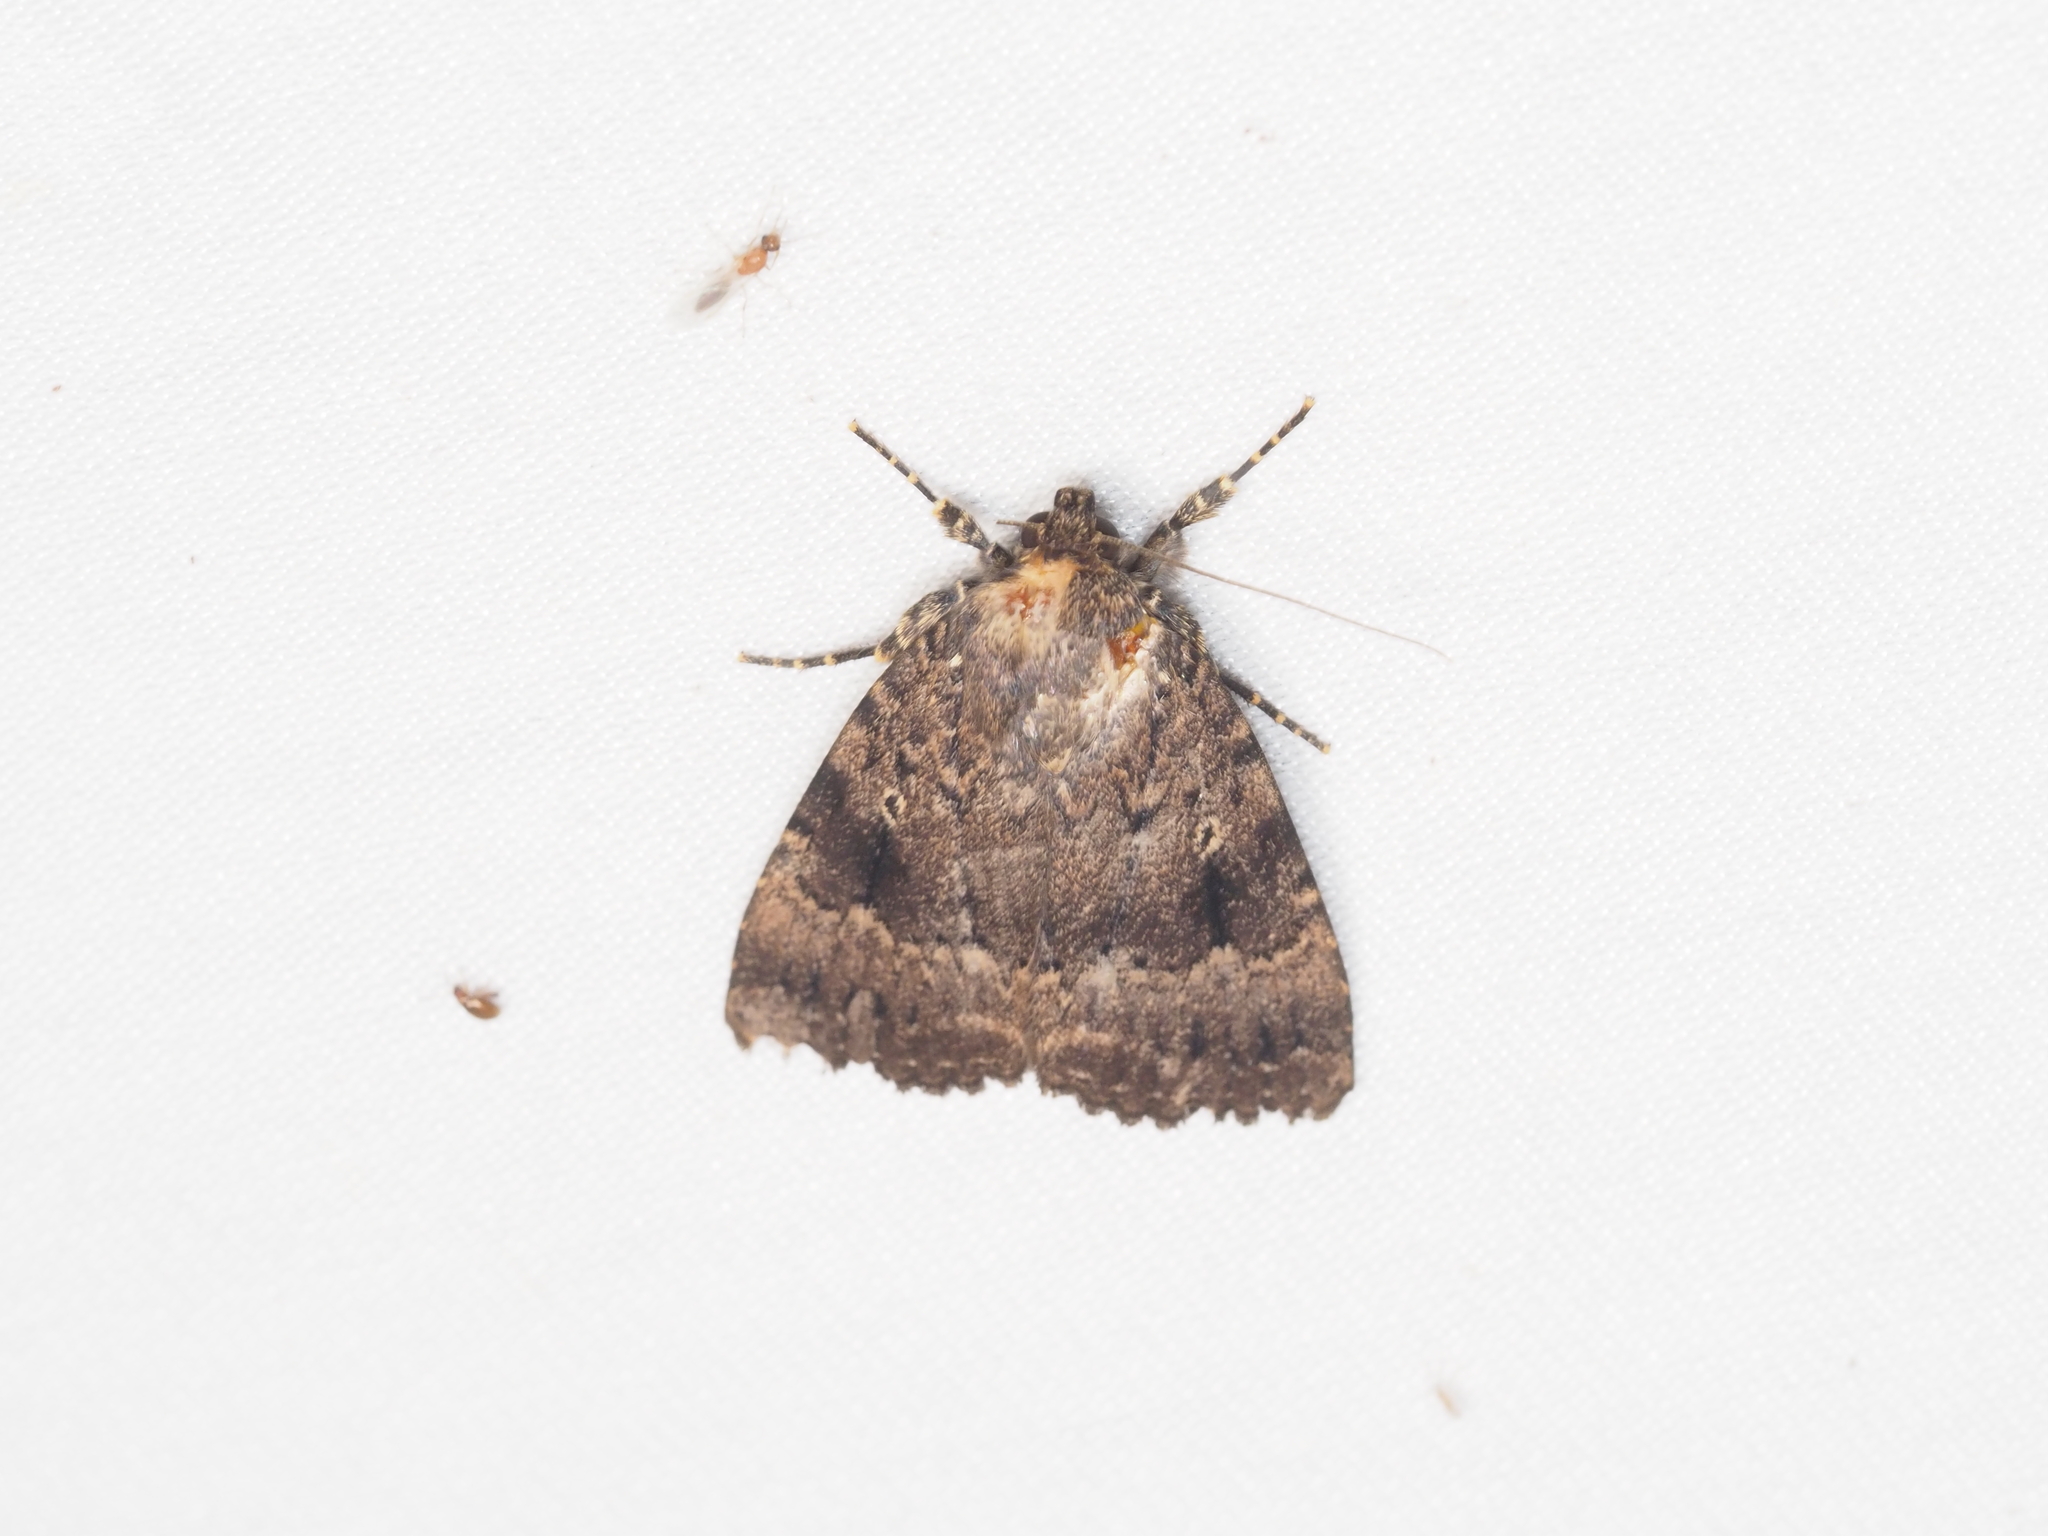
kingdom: Animalia
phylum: Arthropoda
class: Insecta
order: Lepidoptera
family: Noctuidae
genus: Amphipyra
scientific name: Amphipyra pyramidea
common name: Copper underwing
